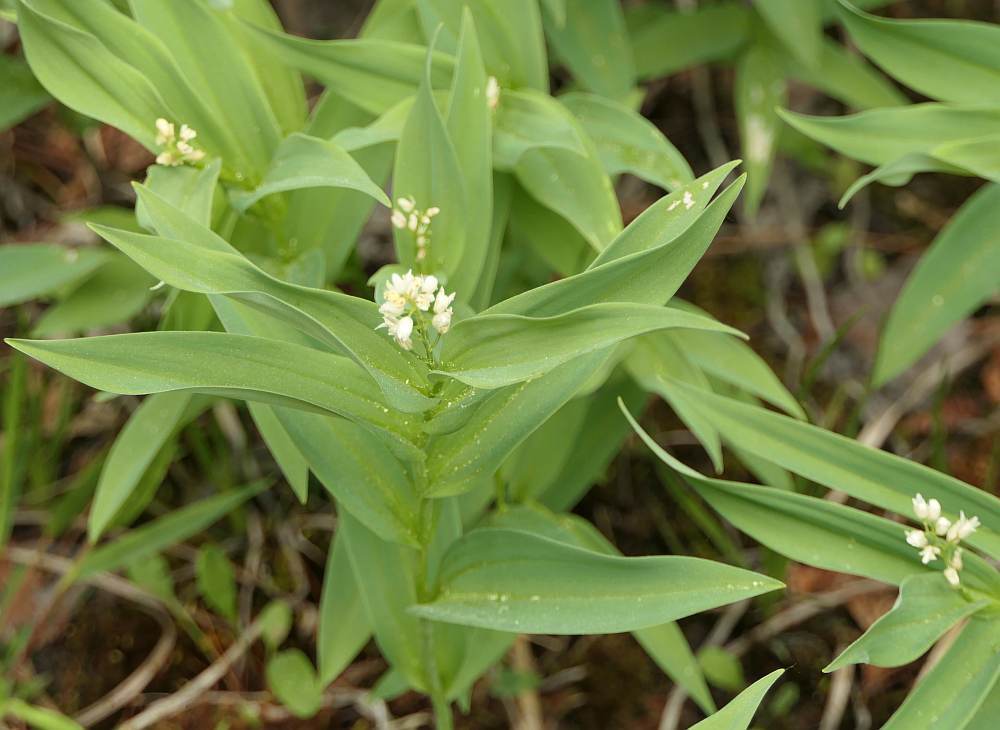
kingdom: Plantae
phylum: Tracheophyta
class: Liliopsida
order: Asparagales
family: Asparagaceae
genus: Maianthemum
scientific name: Maianthemum stellatum
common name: Little false solomon's seal
